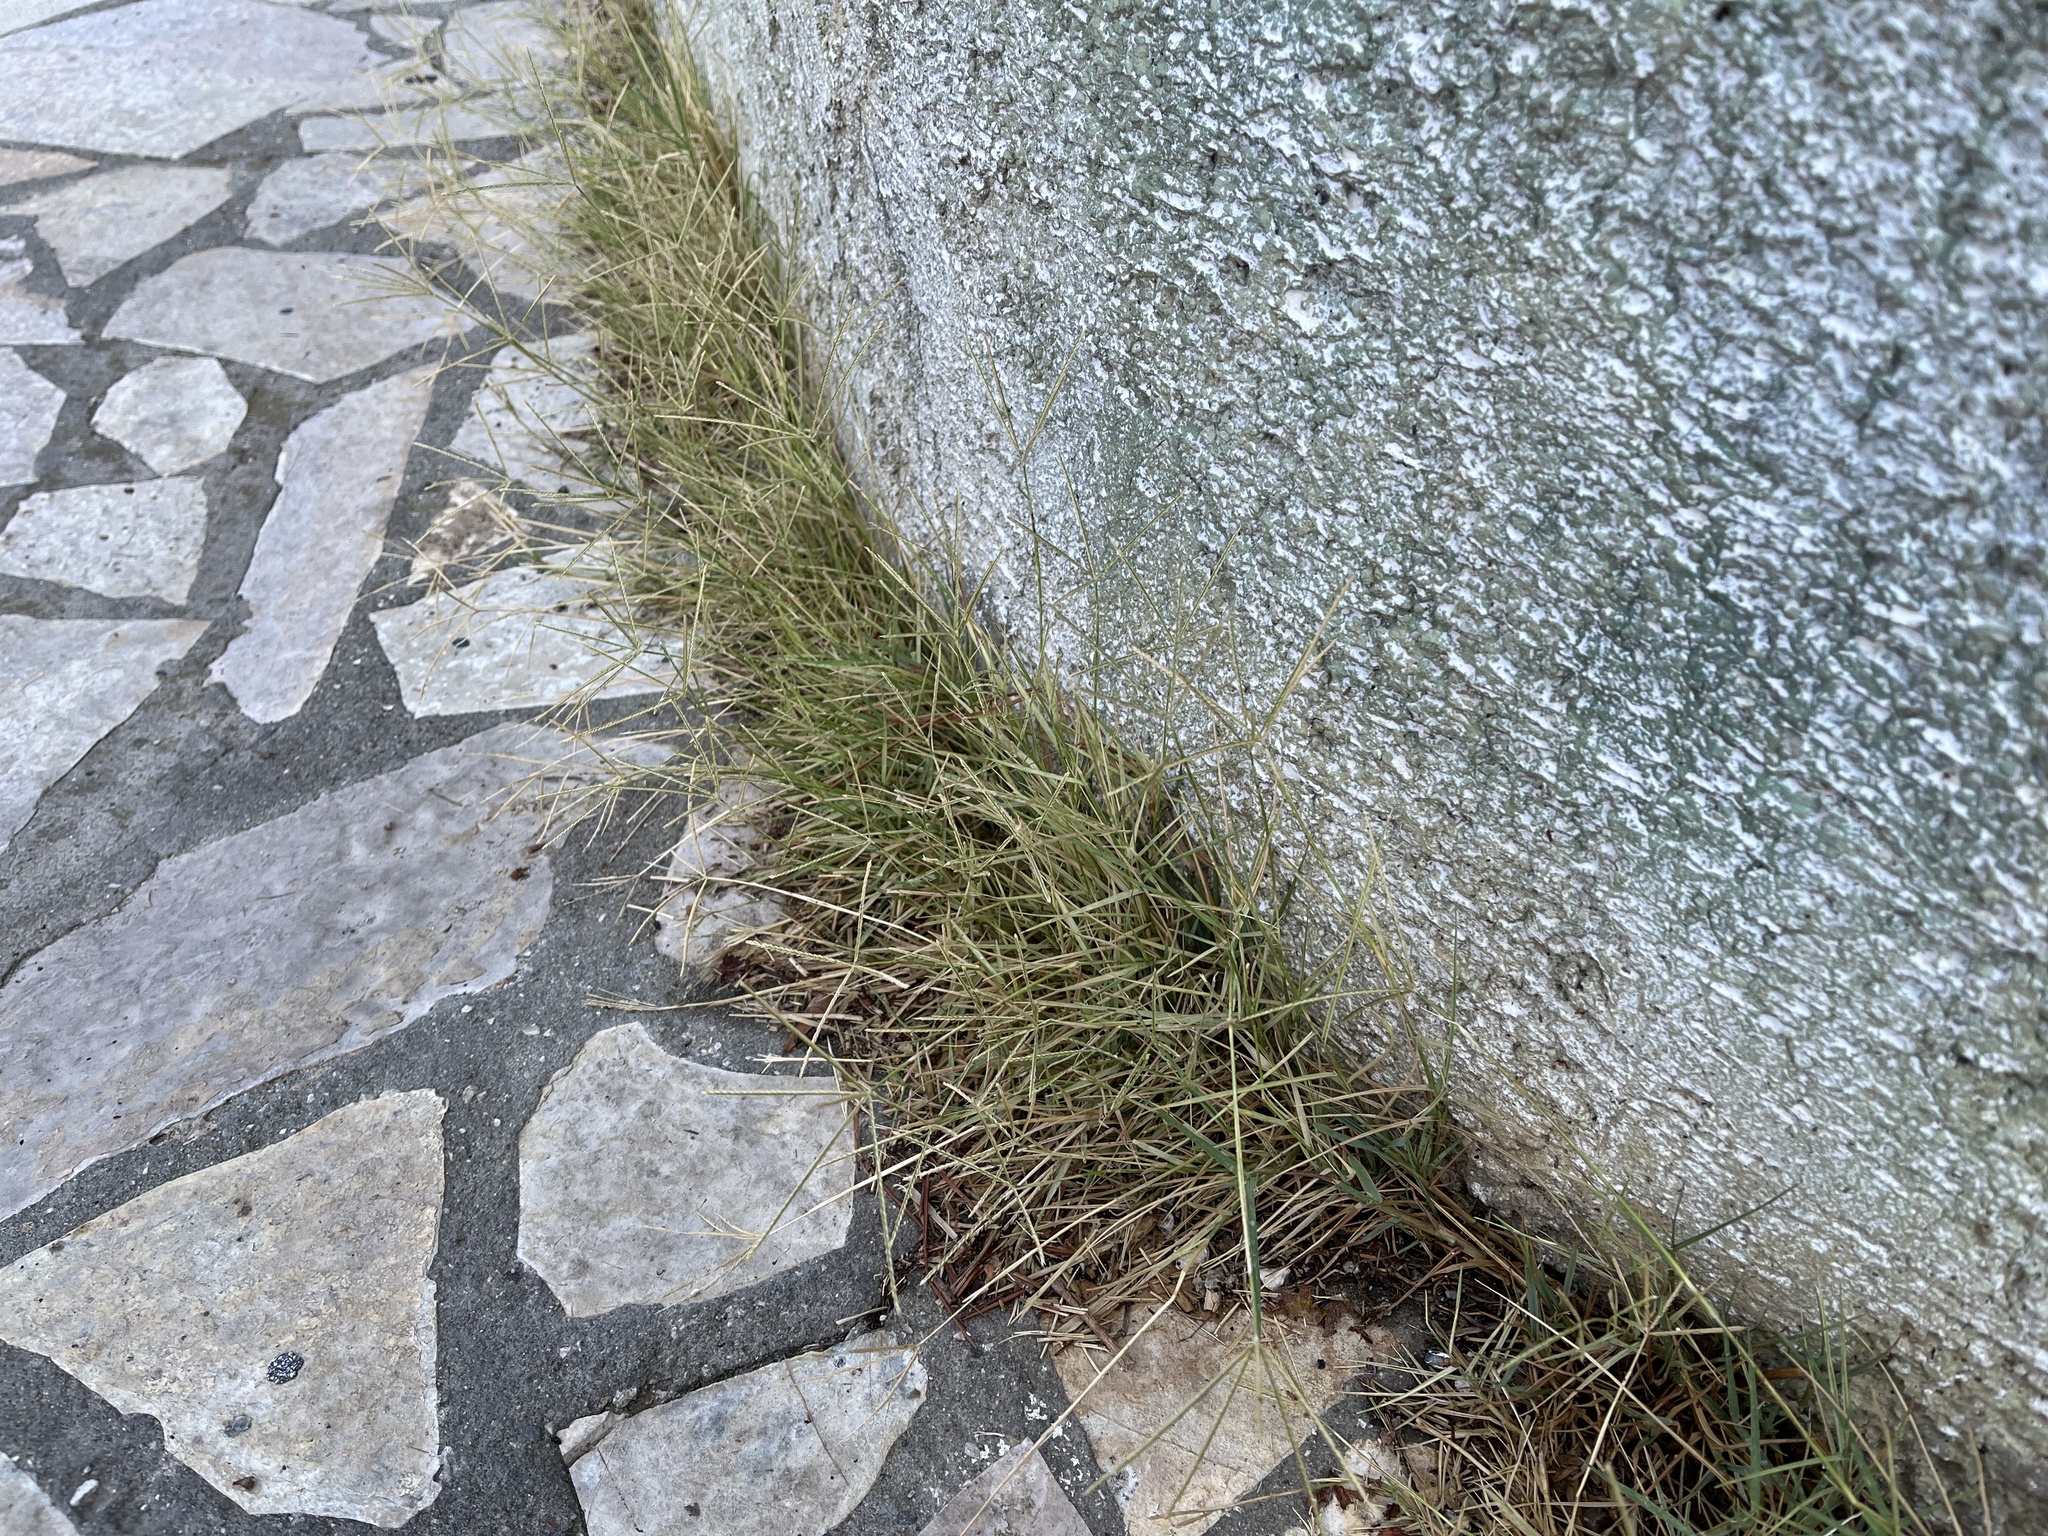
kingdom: Plantae
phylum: Tracheophyta
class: Liliopsida
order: Poales
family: Poaceae
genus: Cynodon
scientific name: Cynodon dactylon
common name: Bermuda grass
